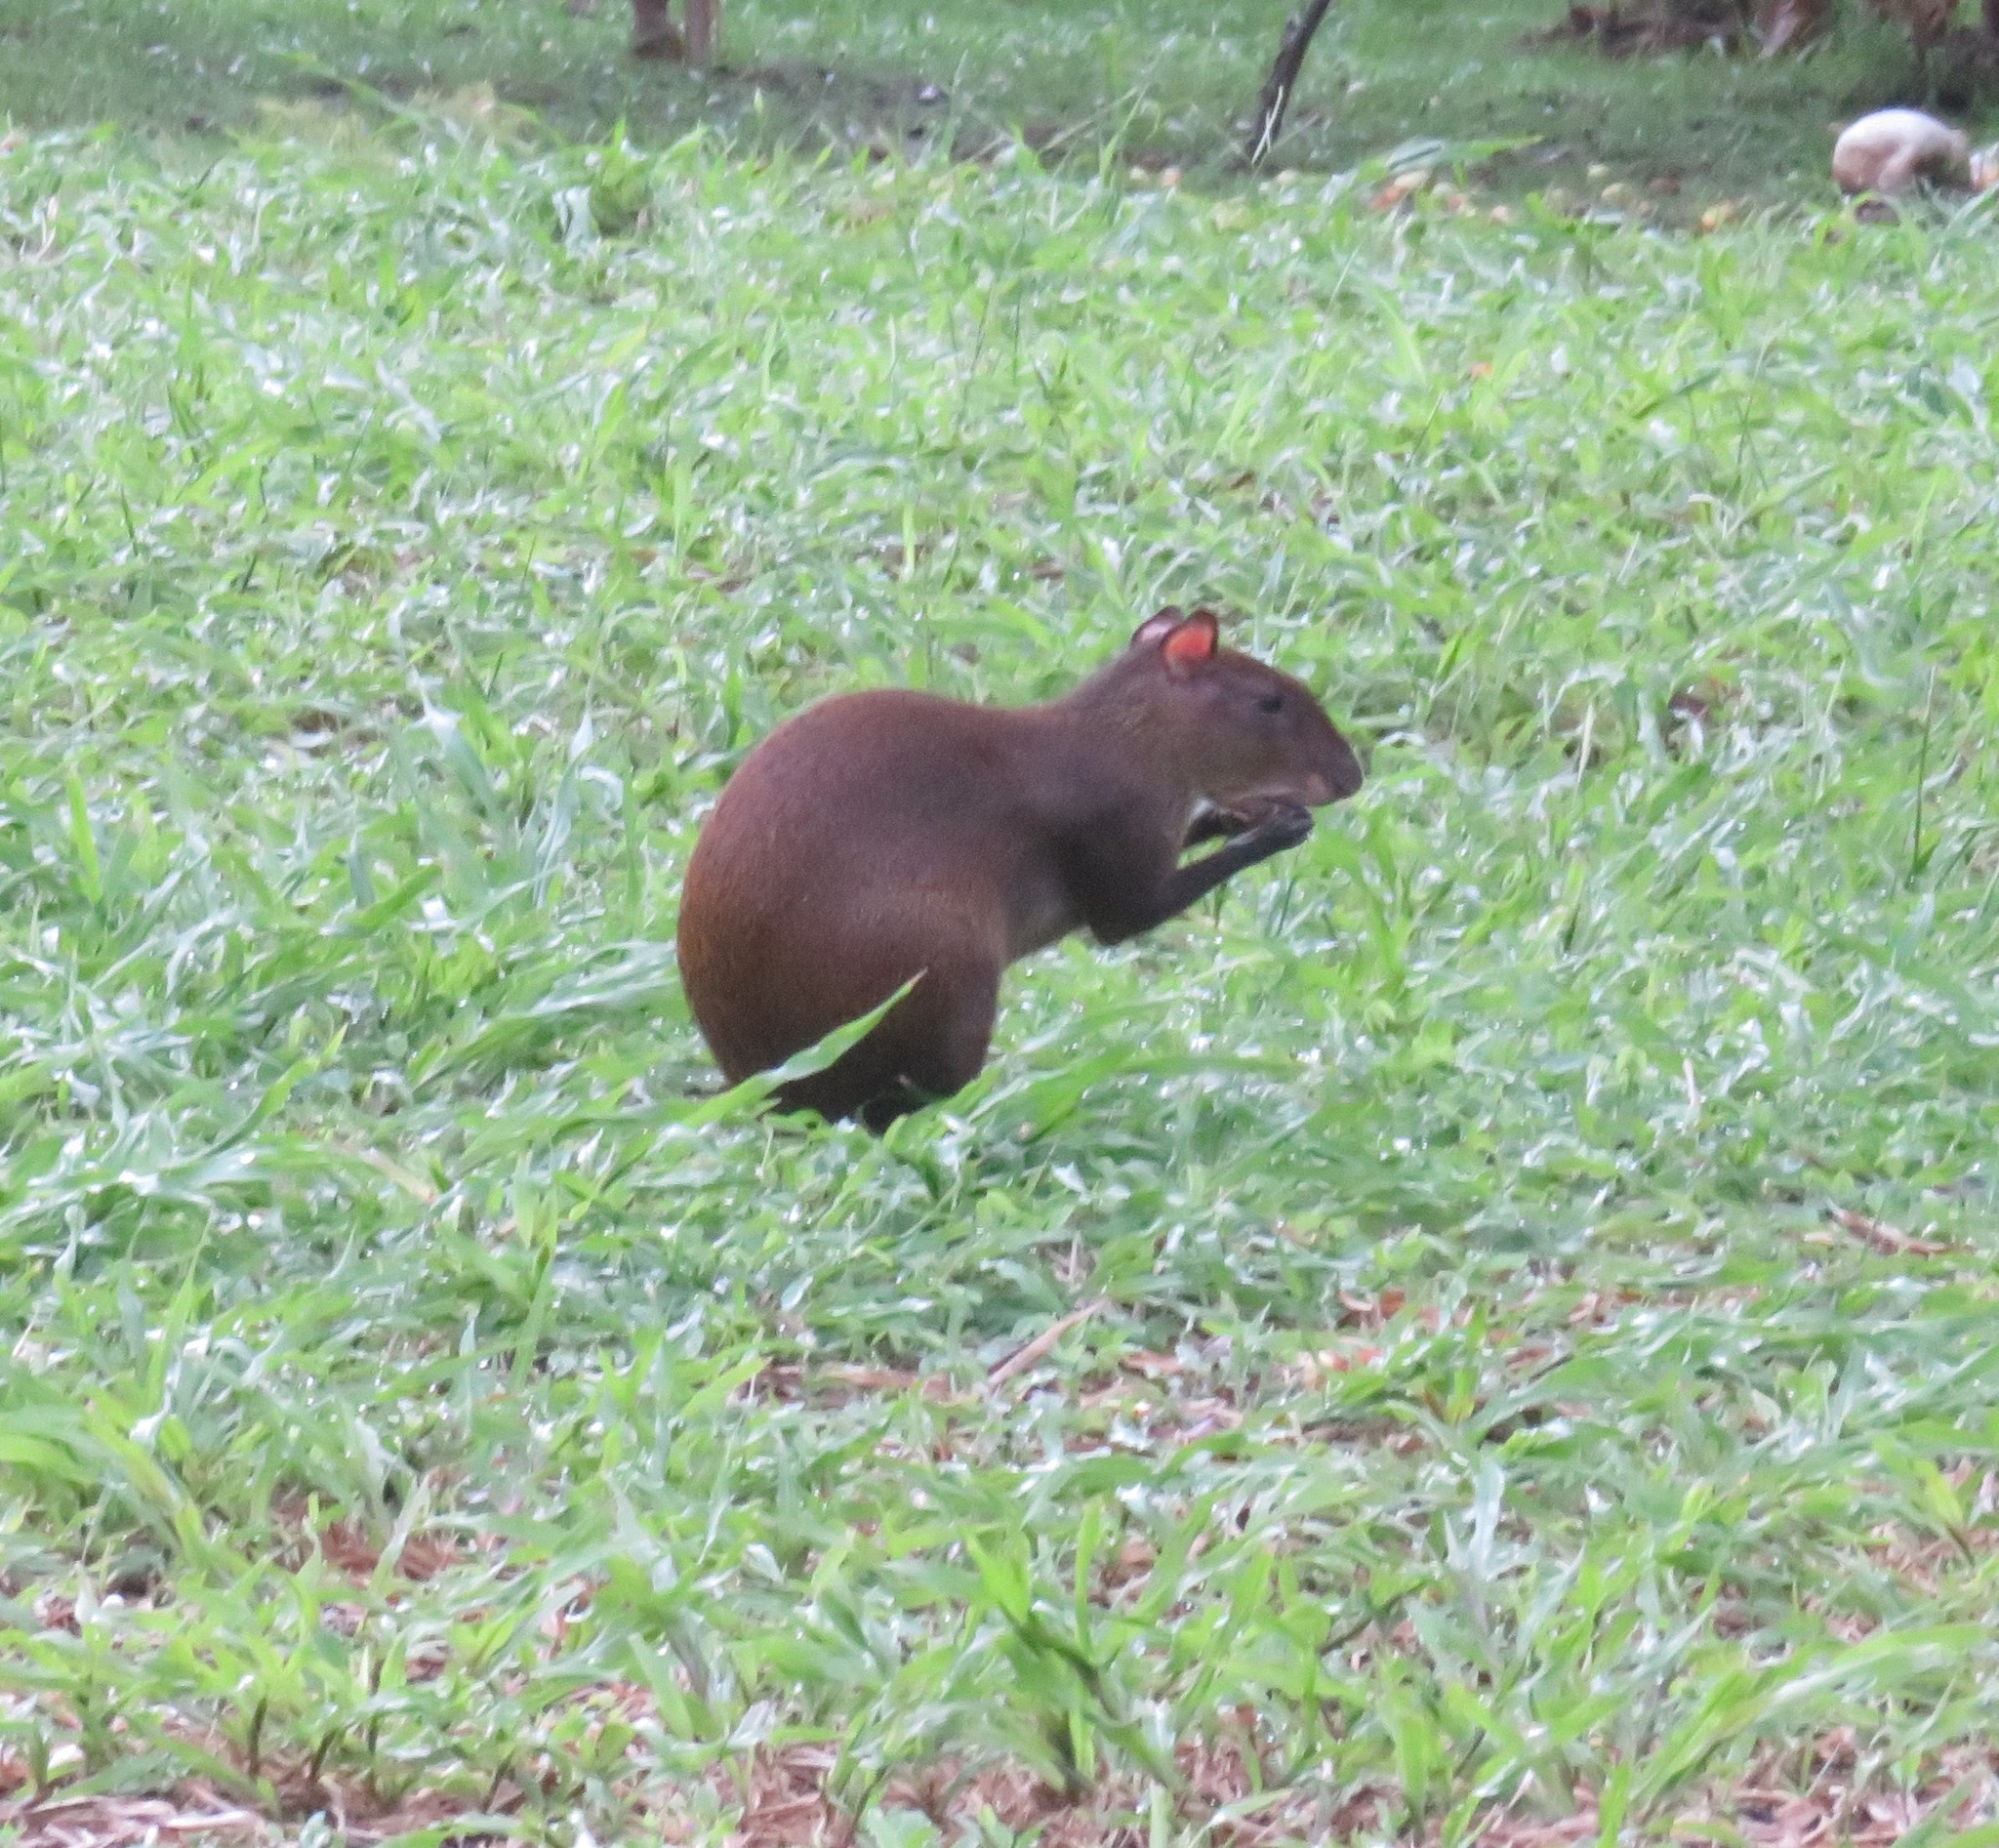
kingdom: Animalia
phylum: Chordata
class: Mammalia
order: Rodentia
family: Dasyproctidae
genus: Dasyprocta
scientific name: Dasyprocta punctata
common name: Central american agouti
